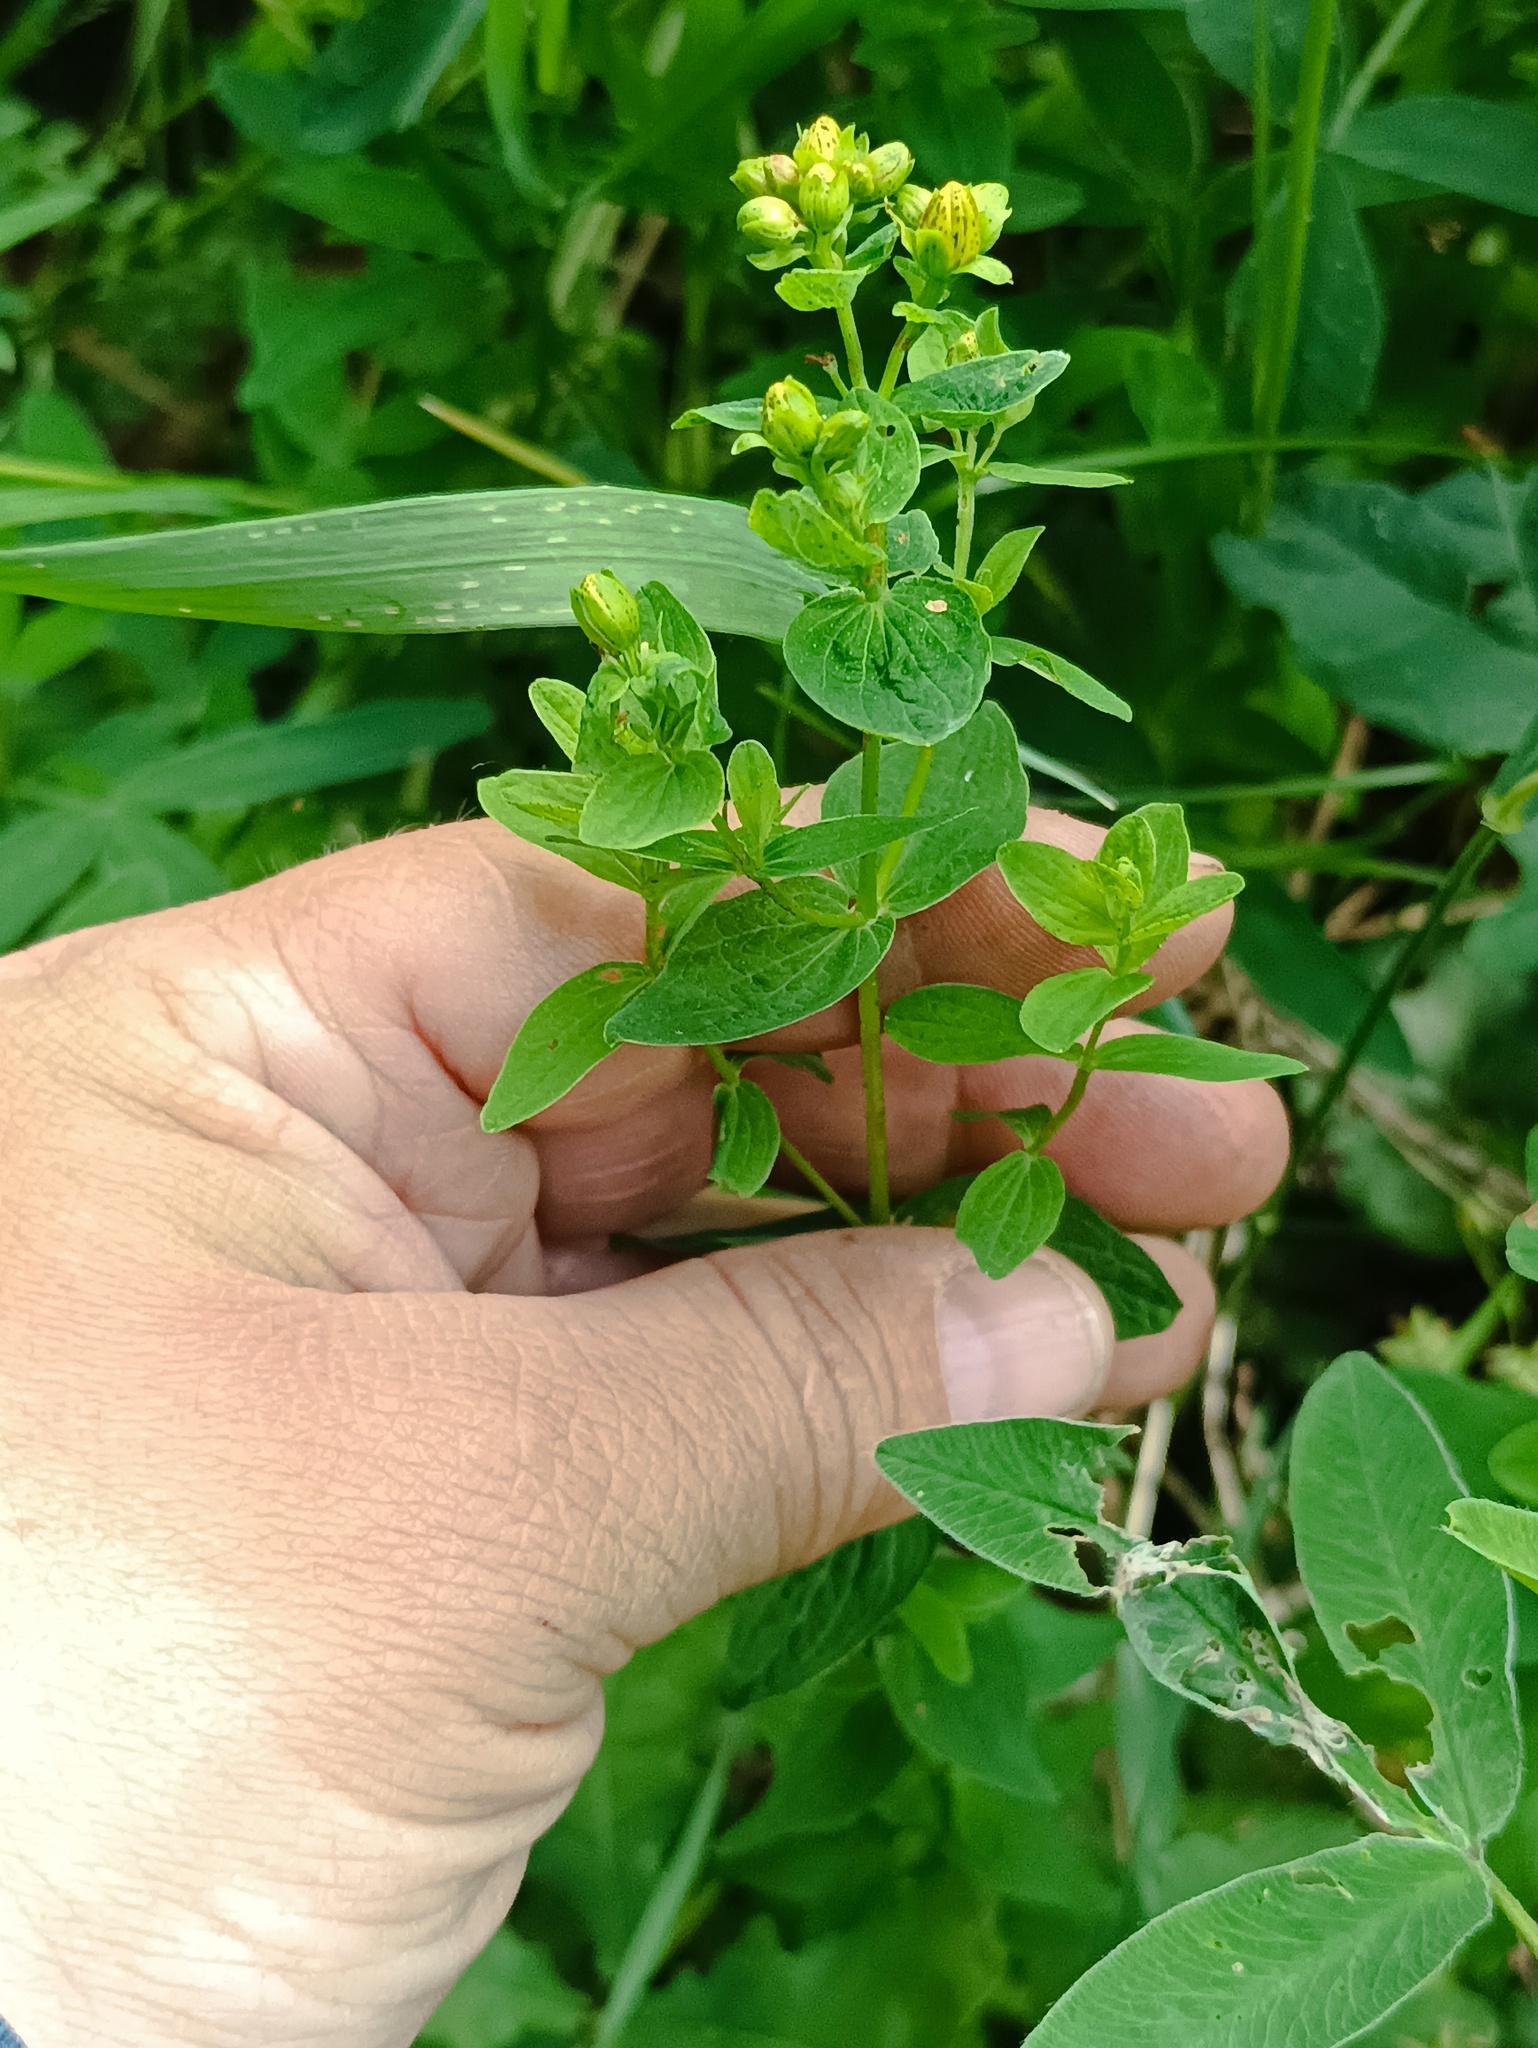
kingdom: Plantae
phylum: Tracheophyta
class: Magnoliopsida
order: Malpighiales
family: Hypericaceae
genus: Hypericum
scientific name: Hypericum maculatum
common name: Imperforate st. john's-wort
